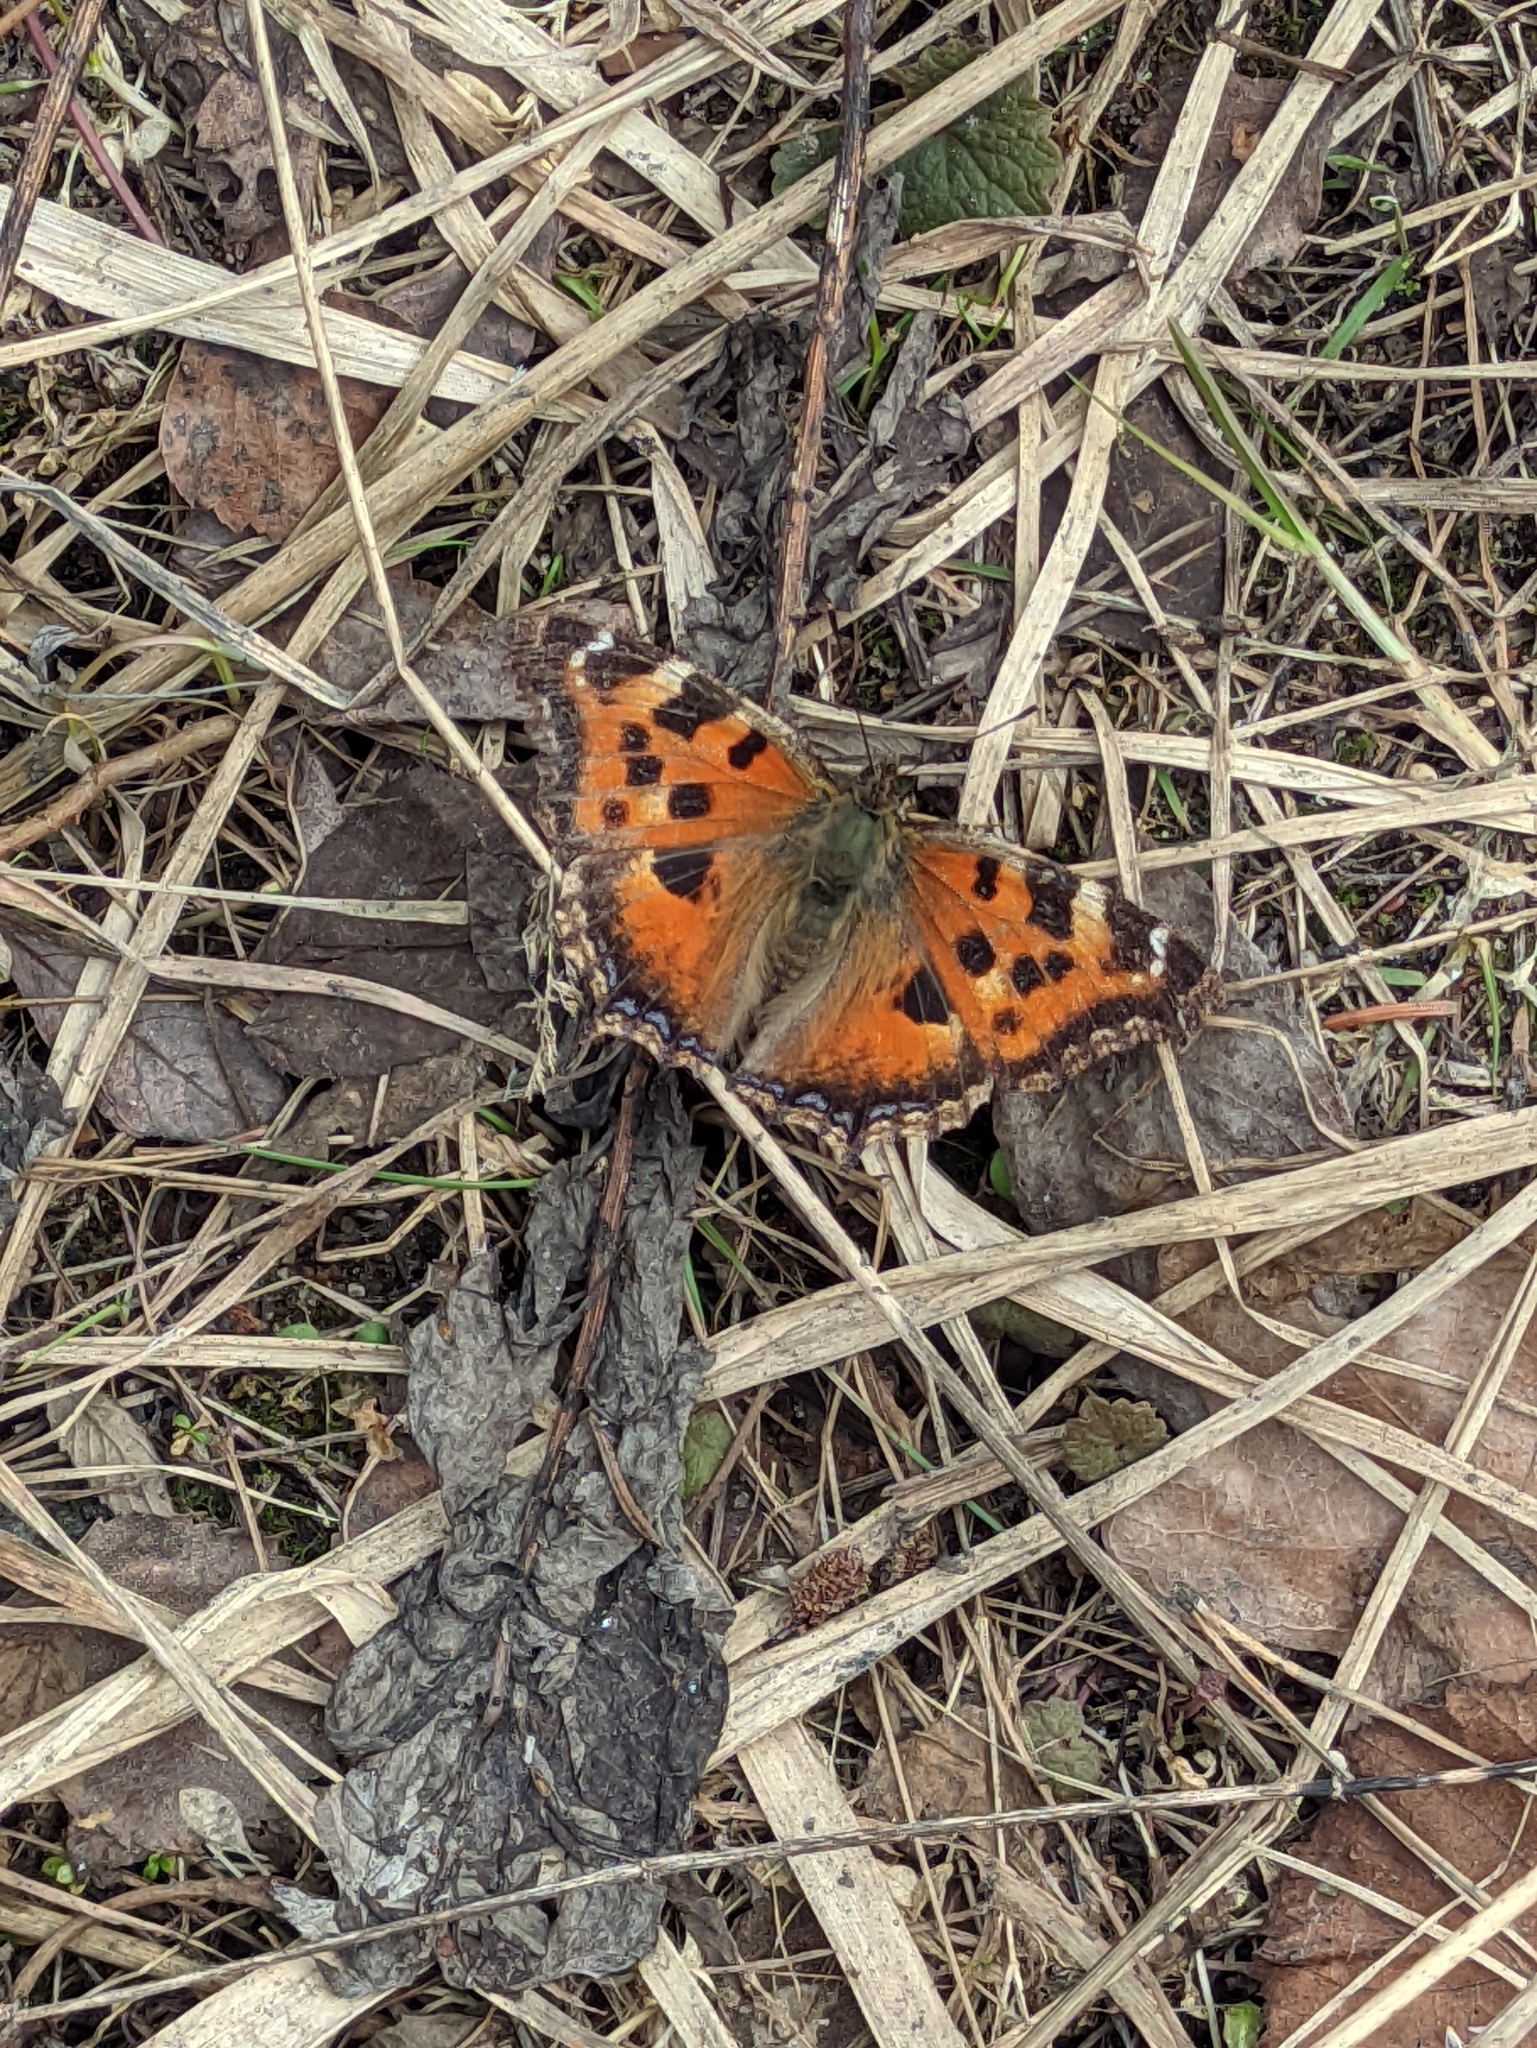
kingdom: Animalia
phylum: Arthropoda
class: Insecta
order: Lepidoptera
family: Nymphalidae
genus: Nymphalis
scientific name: Nymphalis xanthomelas
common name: Scarce tortoiseshell
